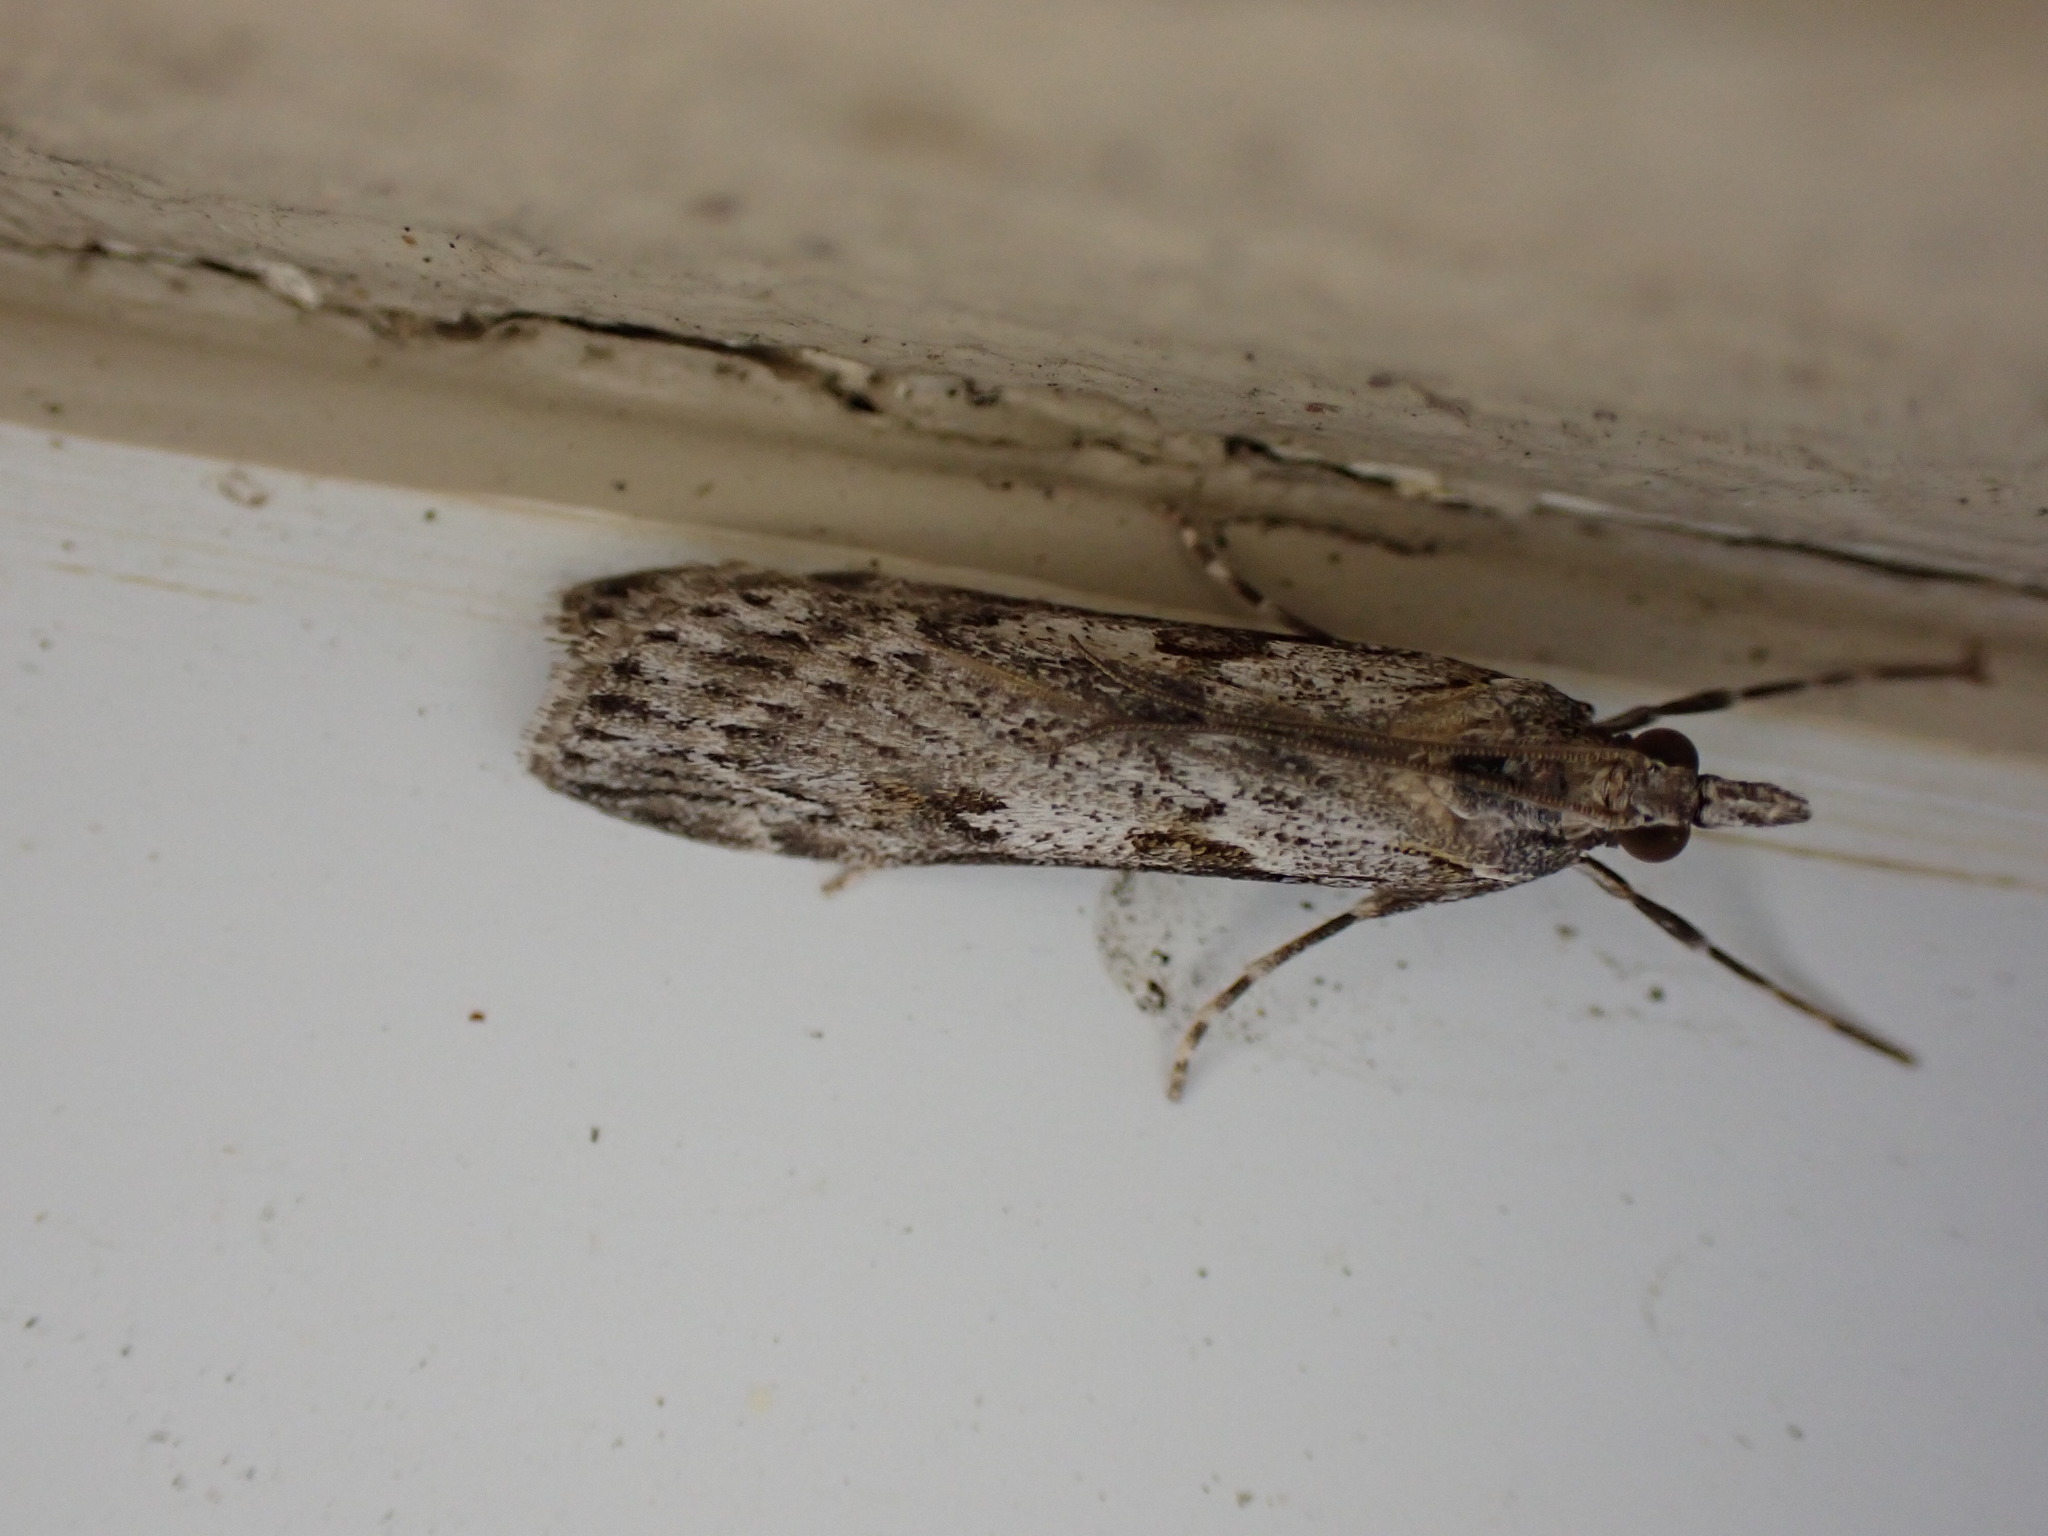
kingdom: Animalia
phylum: Arthropoda
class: Insecta
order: Lepidoptera
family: Crambidae
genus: Scoparia
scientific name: Scoparia halopis
